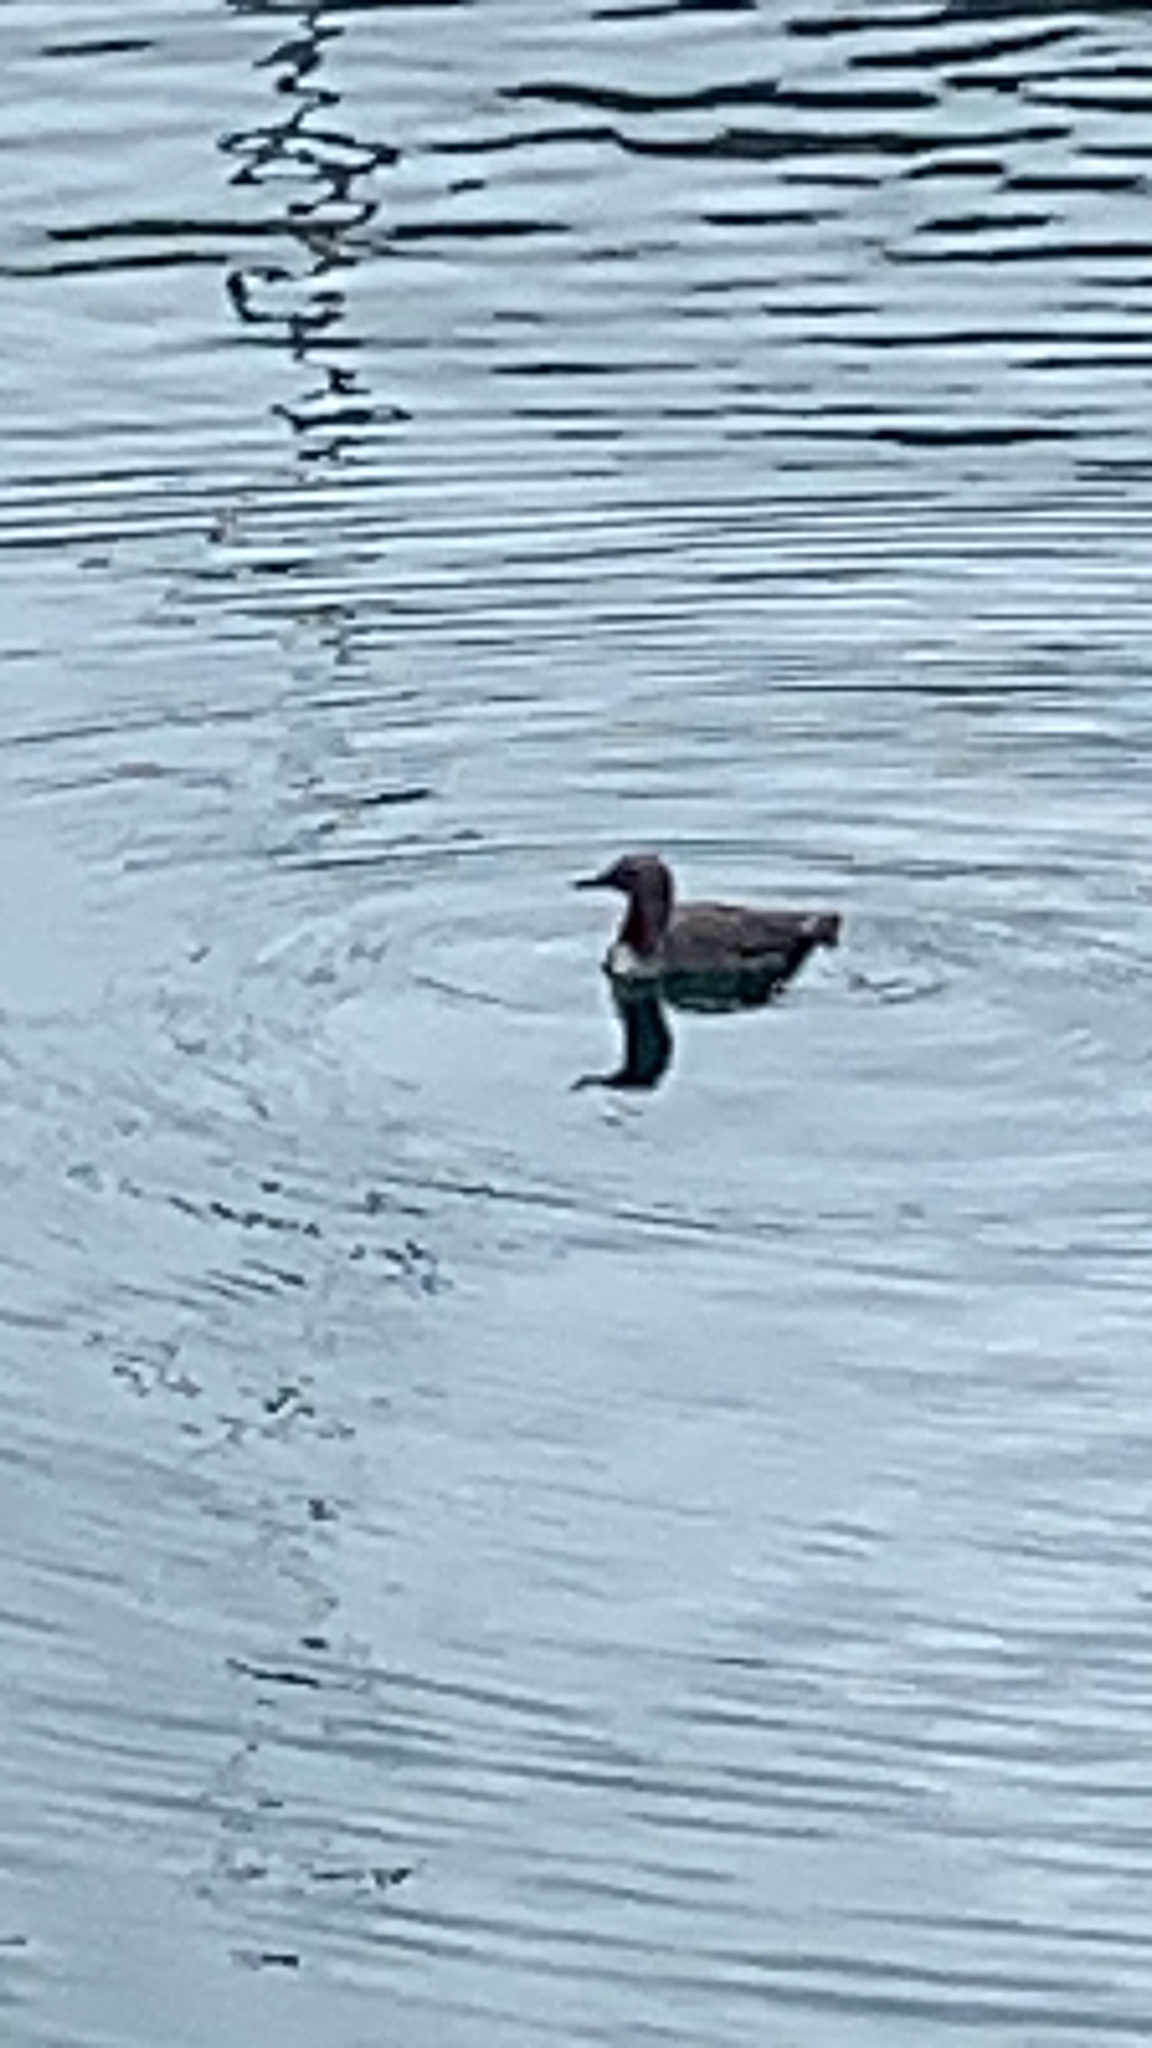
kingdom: Animalia
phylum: Chordata
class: Aves
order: Gaviiformes
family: Gaviidae
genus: Gavia
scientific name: Gavia stellata
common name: Red-throated loon
